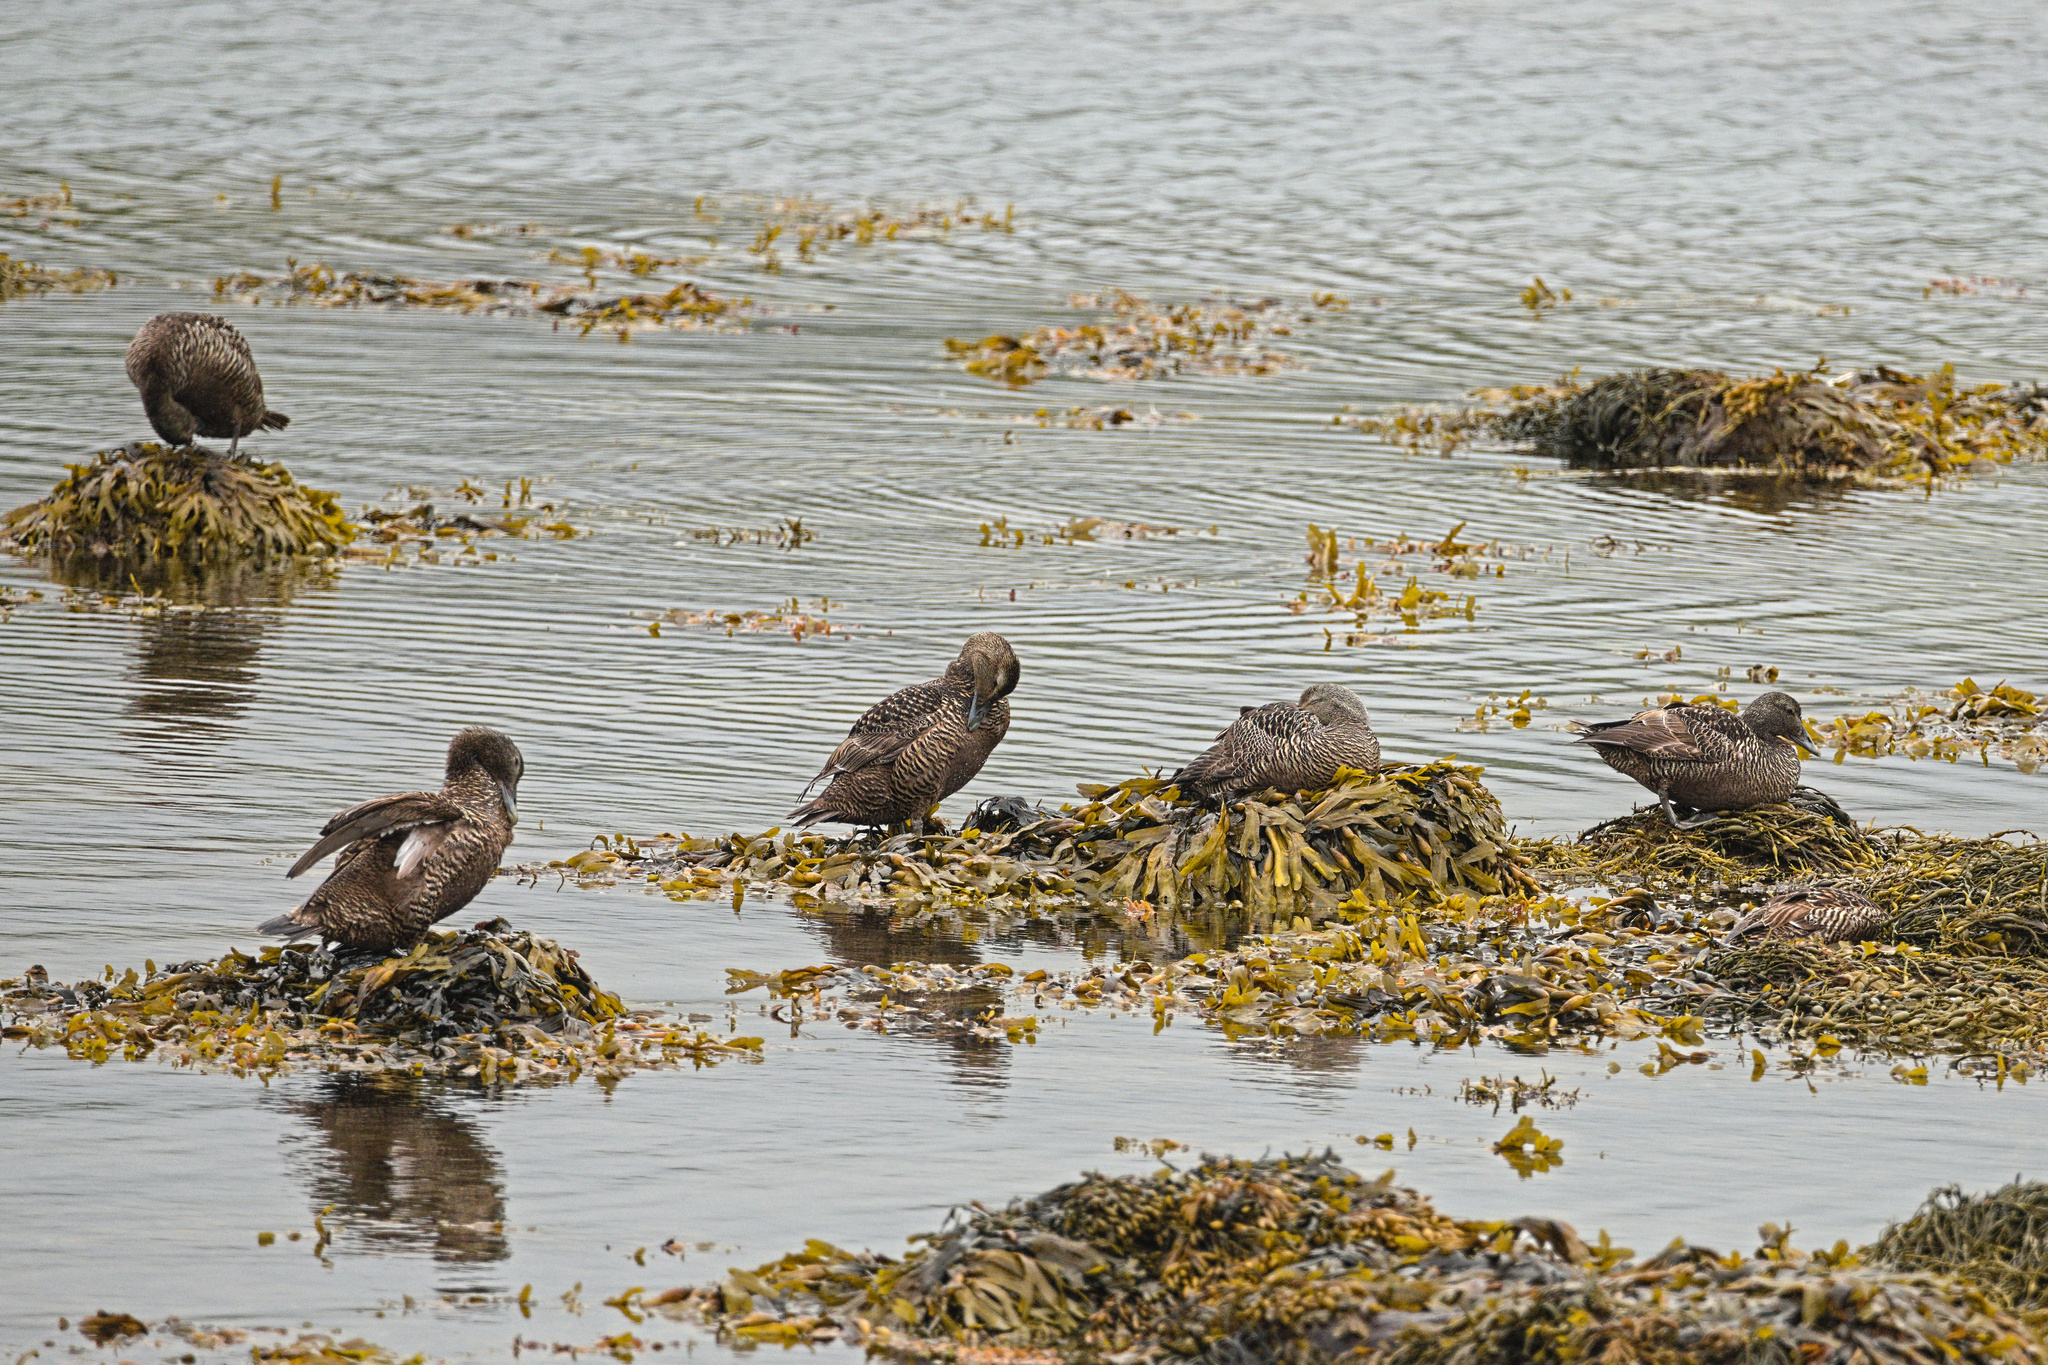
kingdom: Animalia
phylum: Chordata
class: Aves
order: Anseriformes
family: Anatidae
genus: Somateria
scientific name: Somateria mollissima
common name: Common eider
